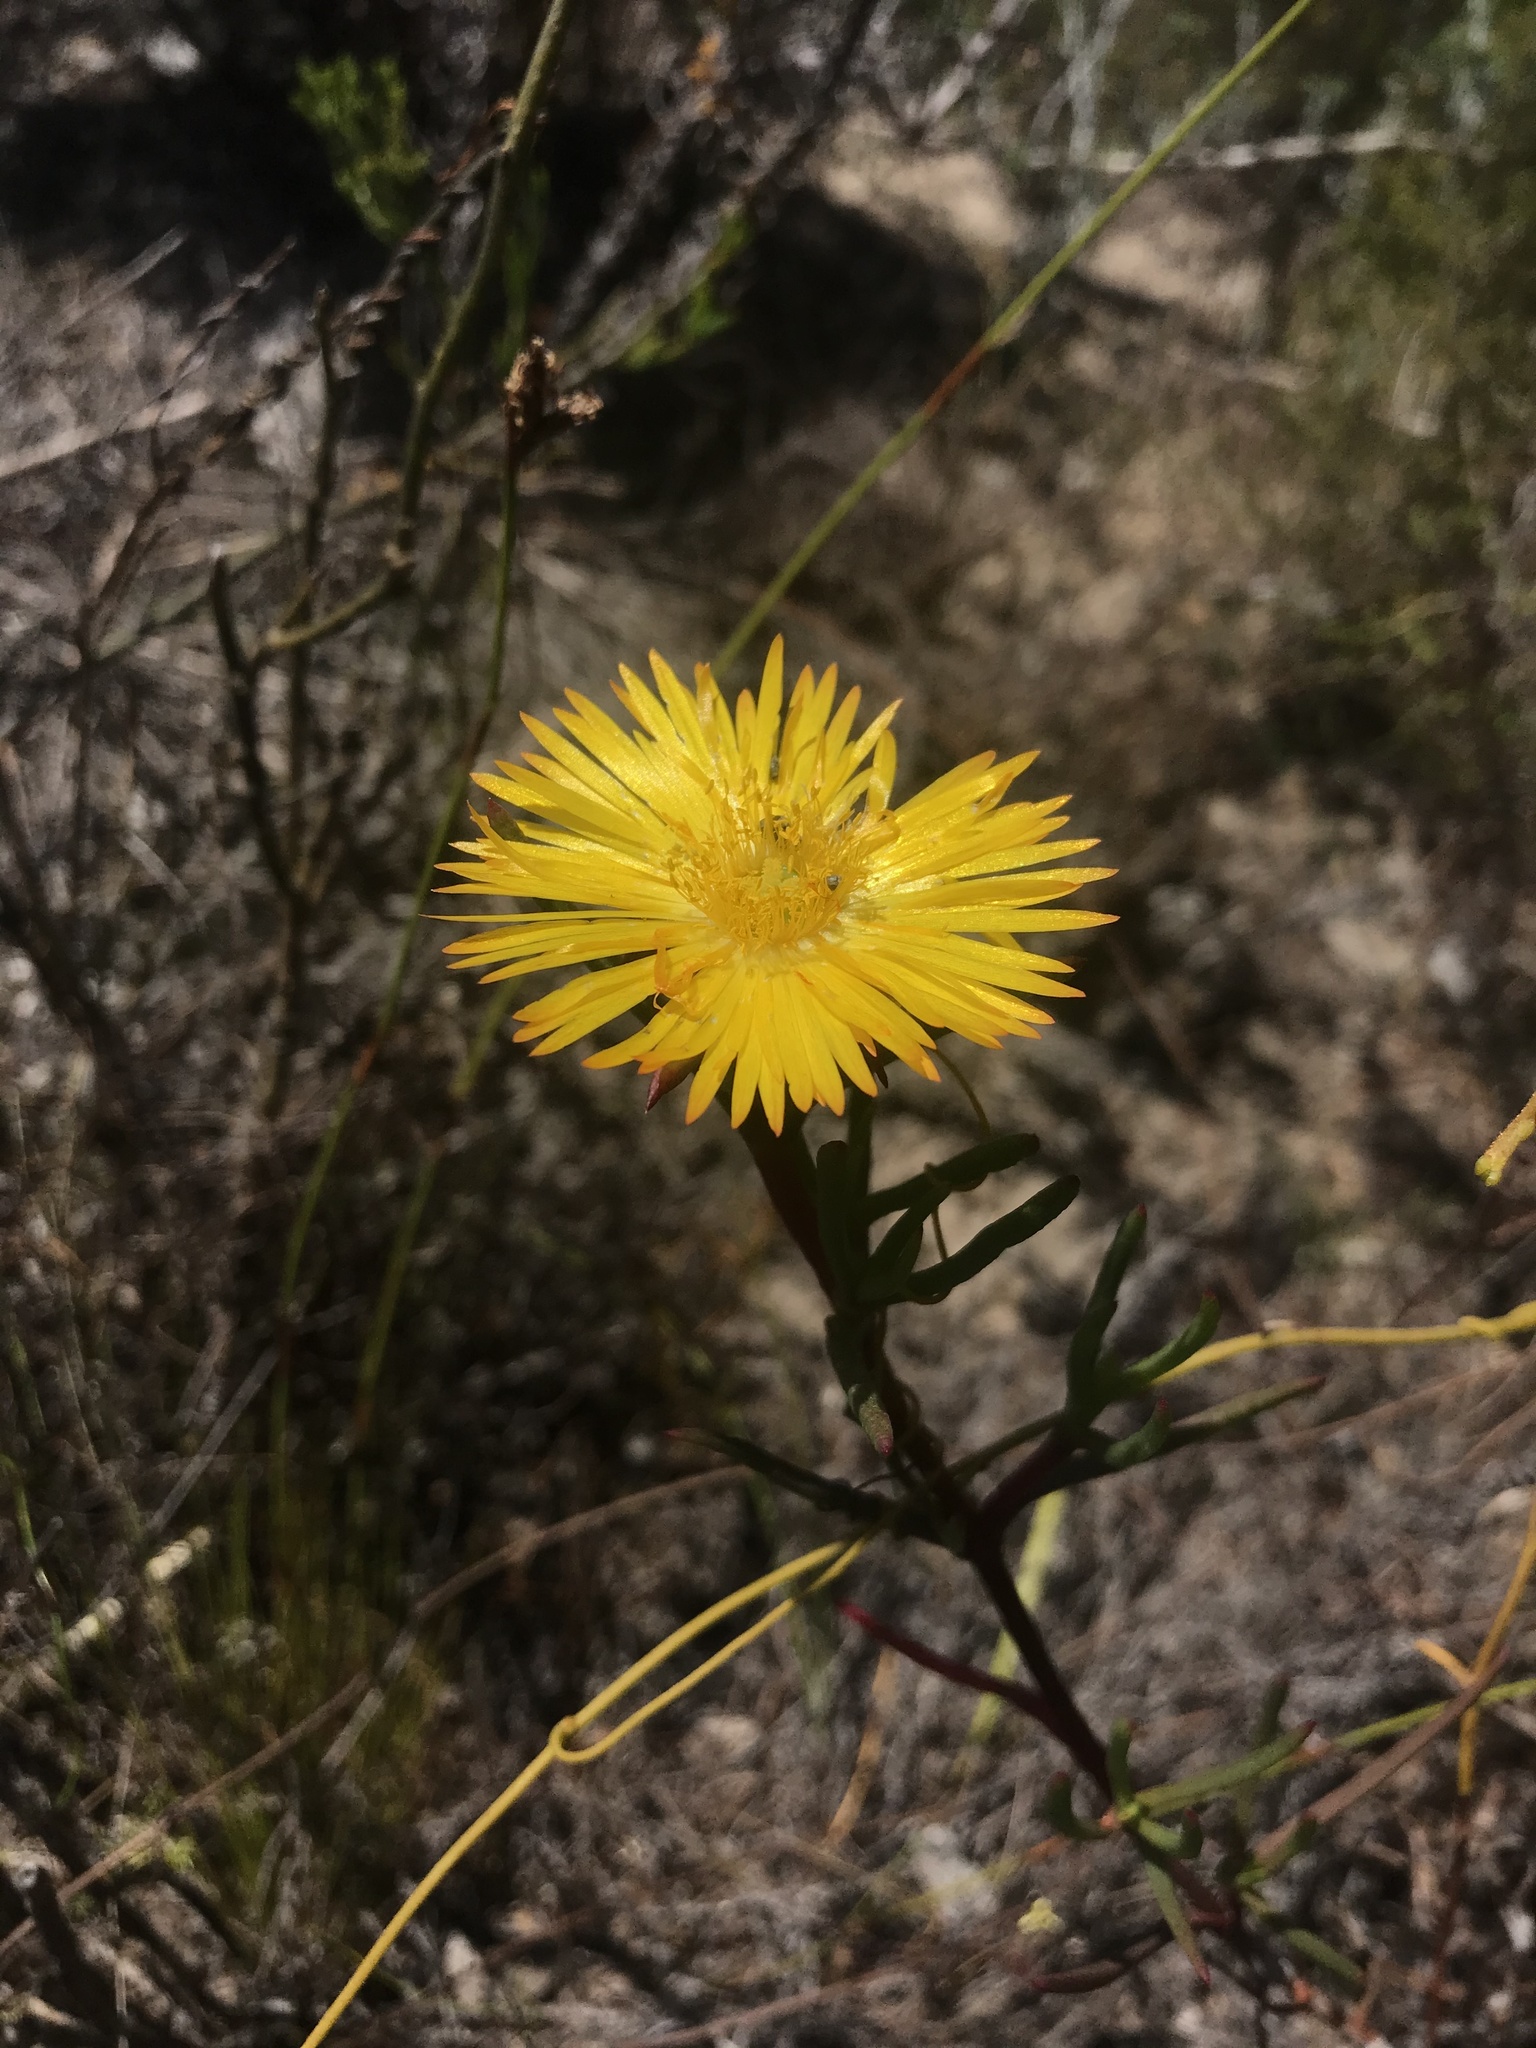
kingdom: Plantae
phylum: Tracheophyta
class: Magnoliopsida
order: Caryophyllales
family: Aizoaceae
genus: Lampranthus
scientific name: Lampranthus bicolor
